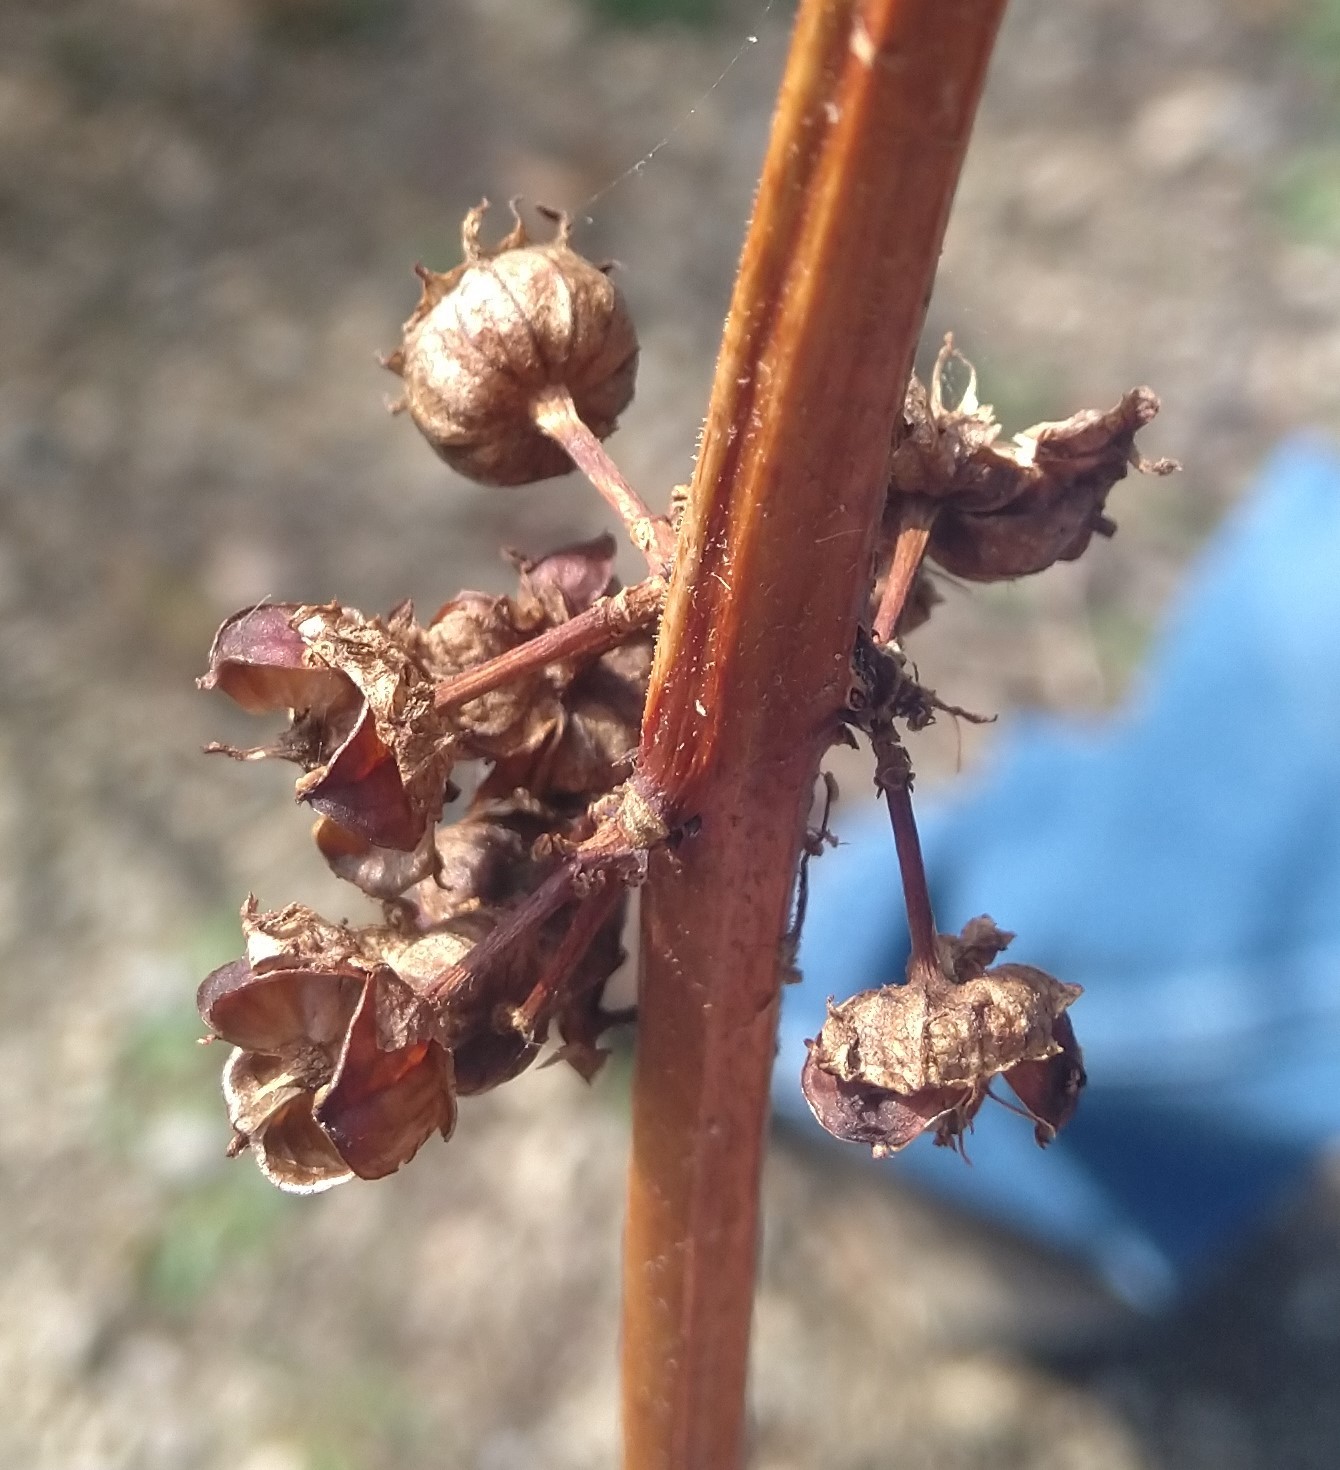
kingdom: Plantae
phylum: Tracheophyta
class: Magnoliopsida
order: Myrtales
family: Lythraceae
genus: Decodon
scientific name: Decodon verticillatus
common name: Hairy swamp loosestrife
